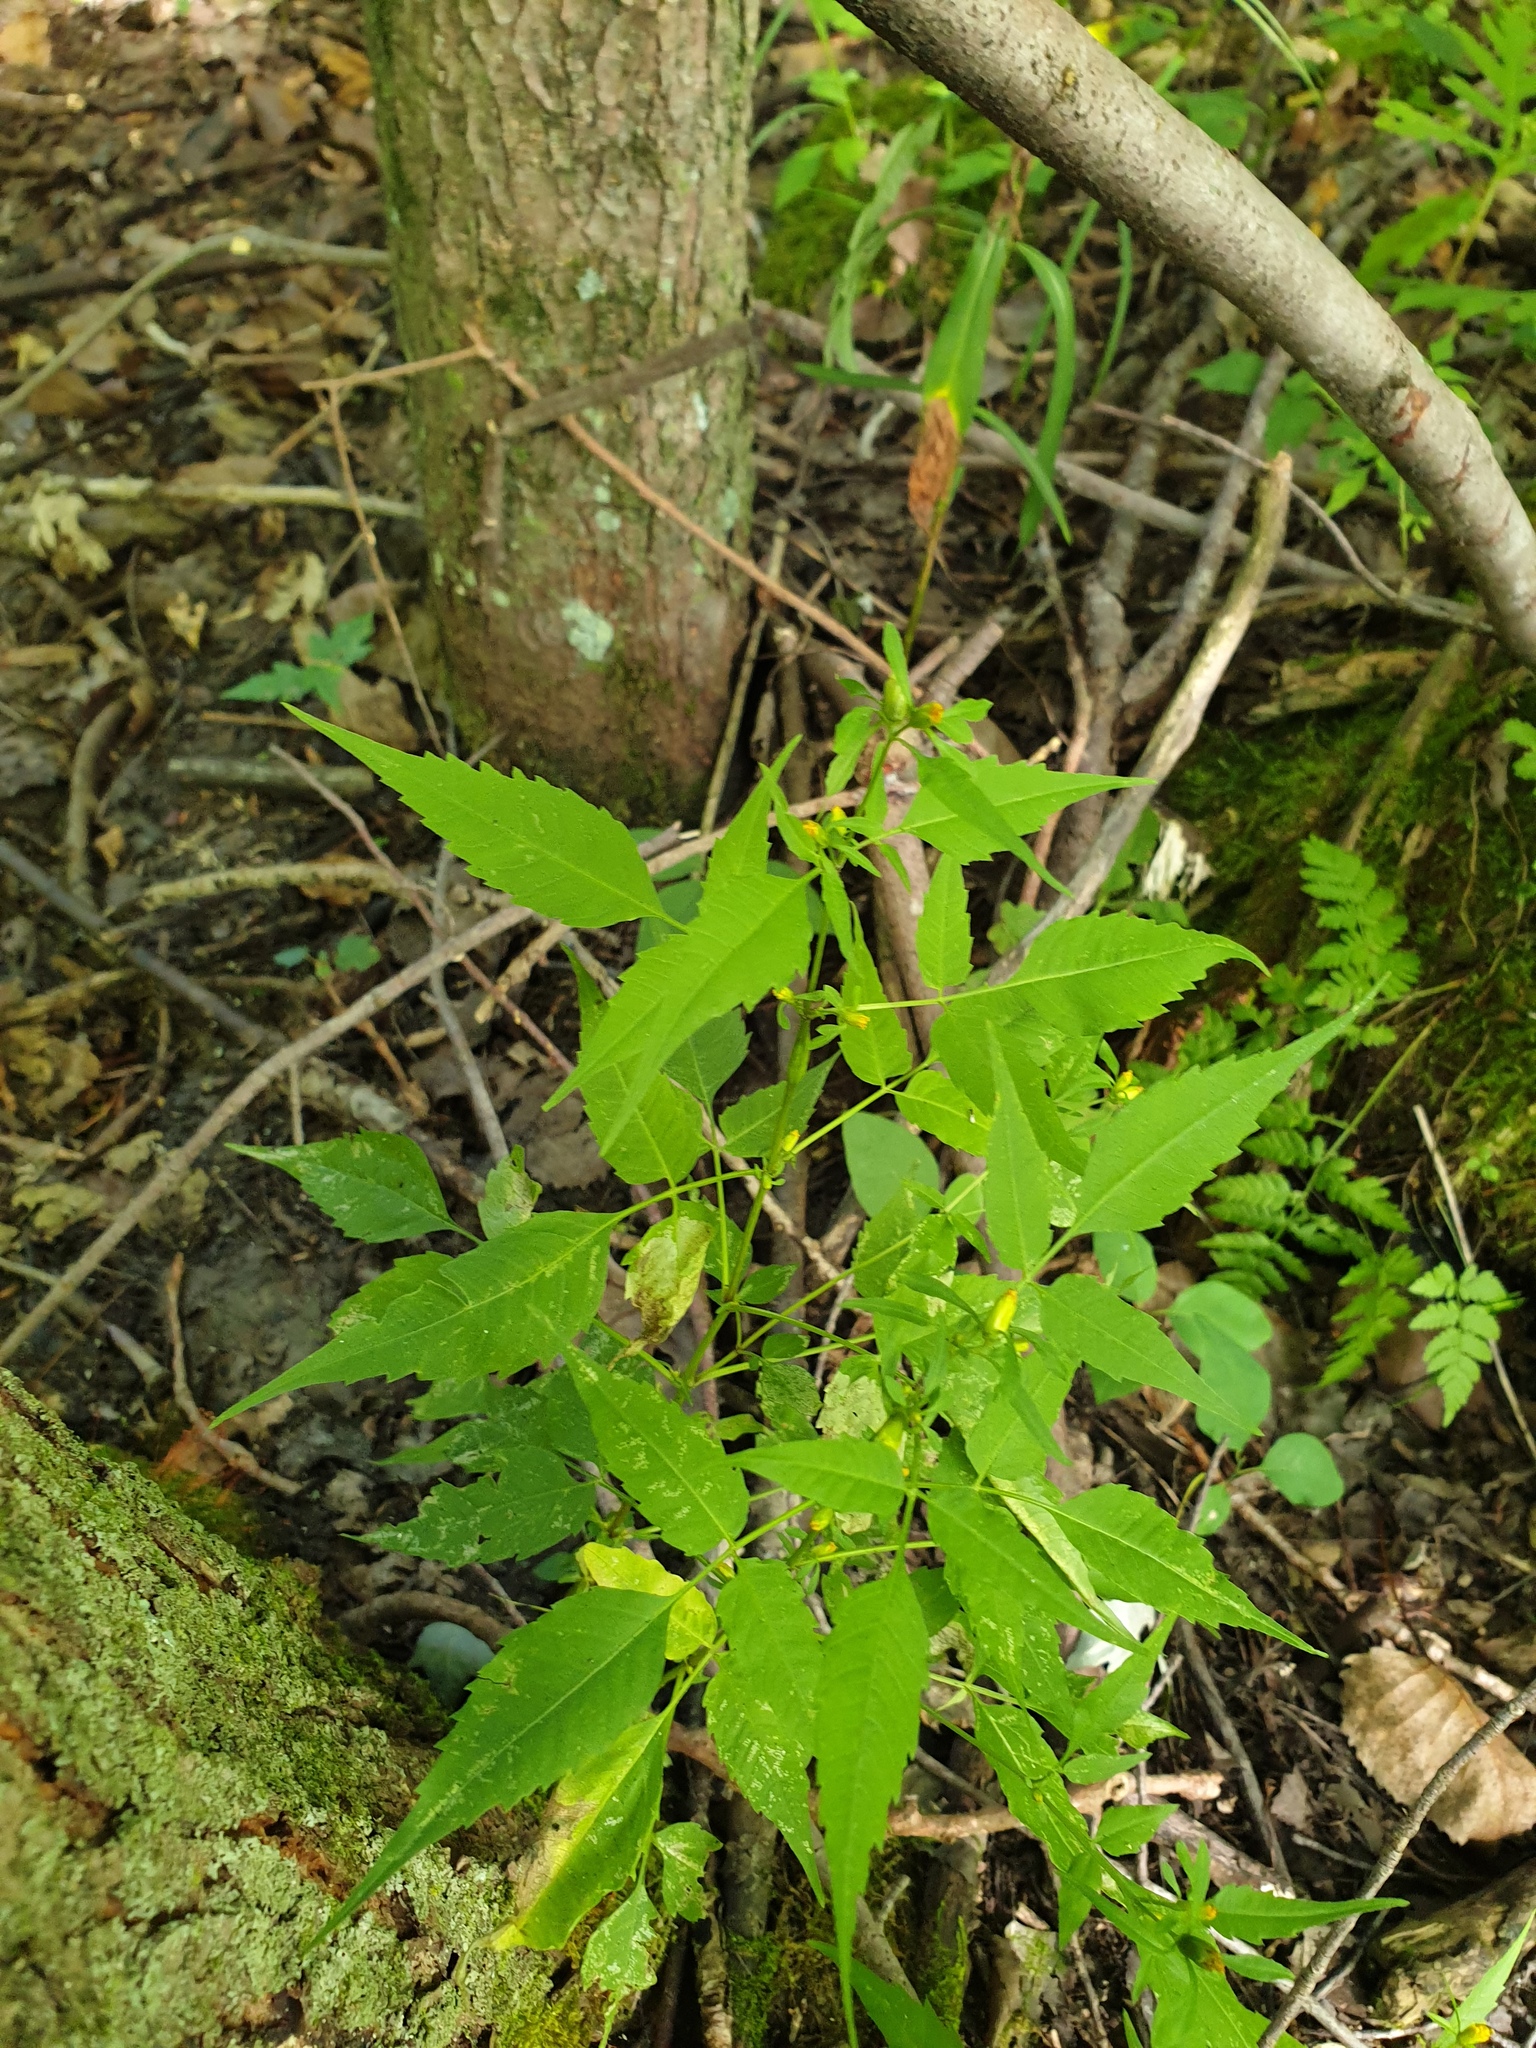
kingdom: Plantae
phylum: Tracheophyta
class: Magnoliopsida
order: Asterales
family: Asteraceae
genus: Bidens
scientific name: Bidens discoidea
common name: Discoide beggarticks
